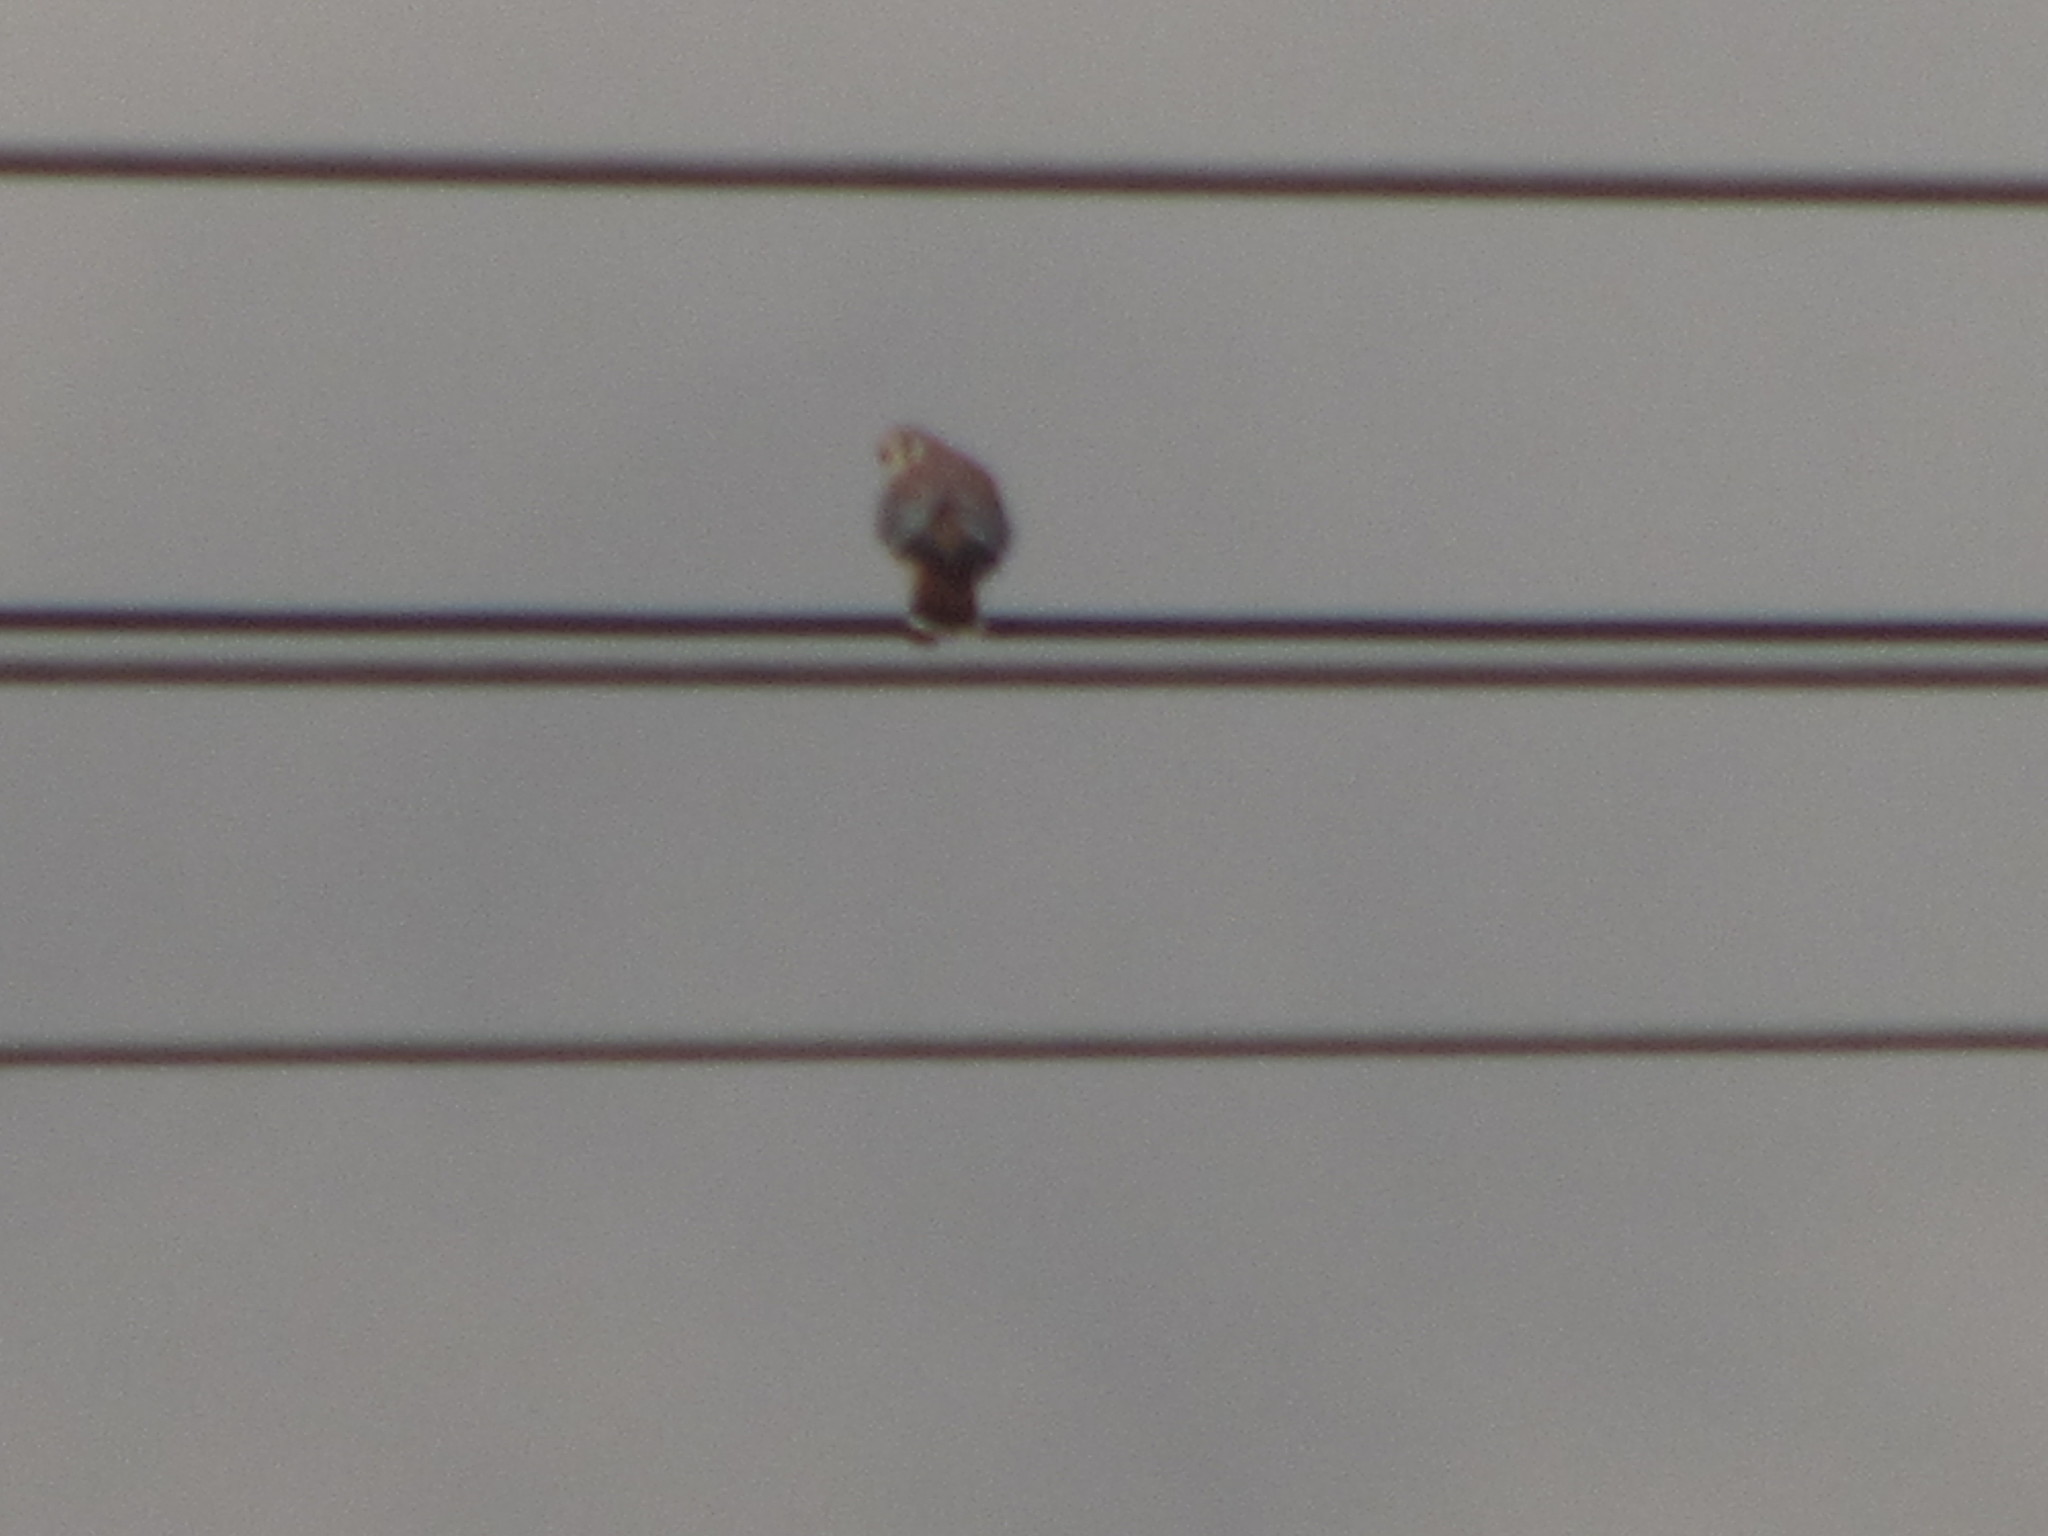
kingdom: Animalia
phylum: Chordata
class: Aves
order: Falconiformes
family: Falconidae
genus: Falco
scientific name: Falco sparverius
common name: American kestrel
